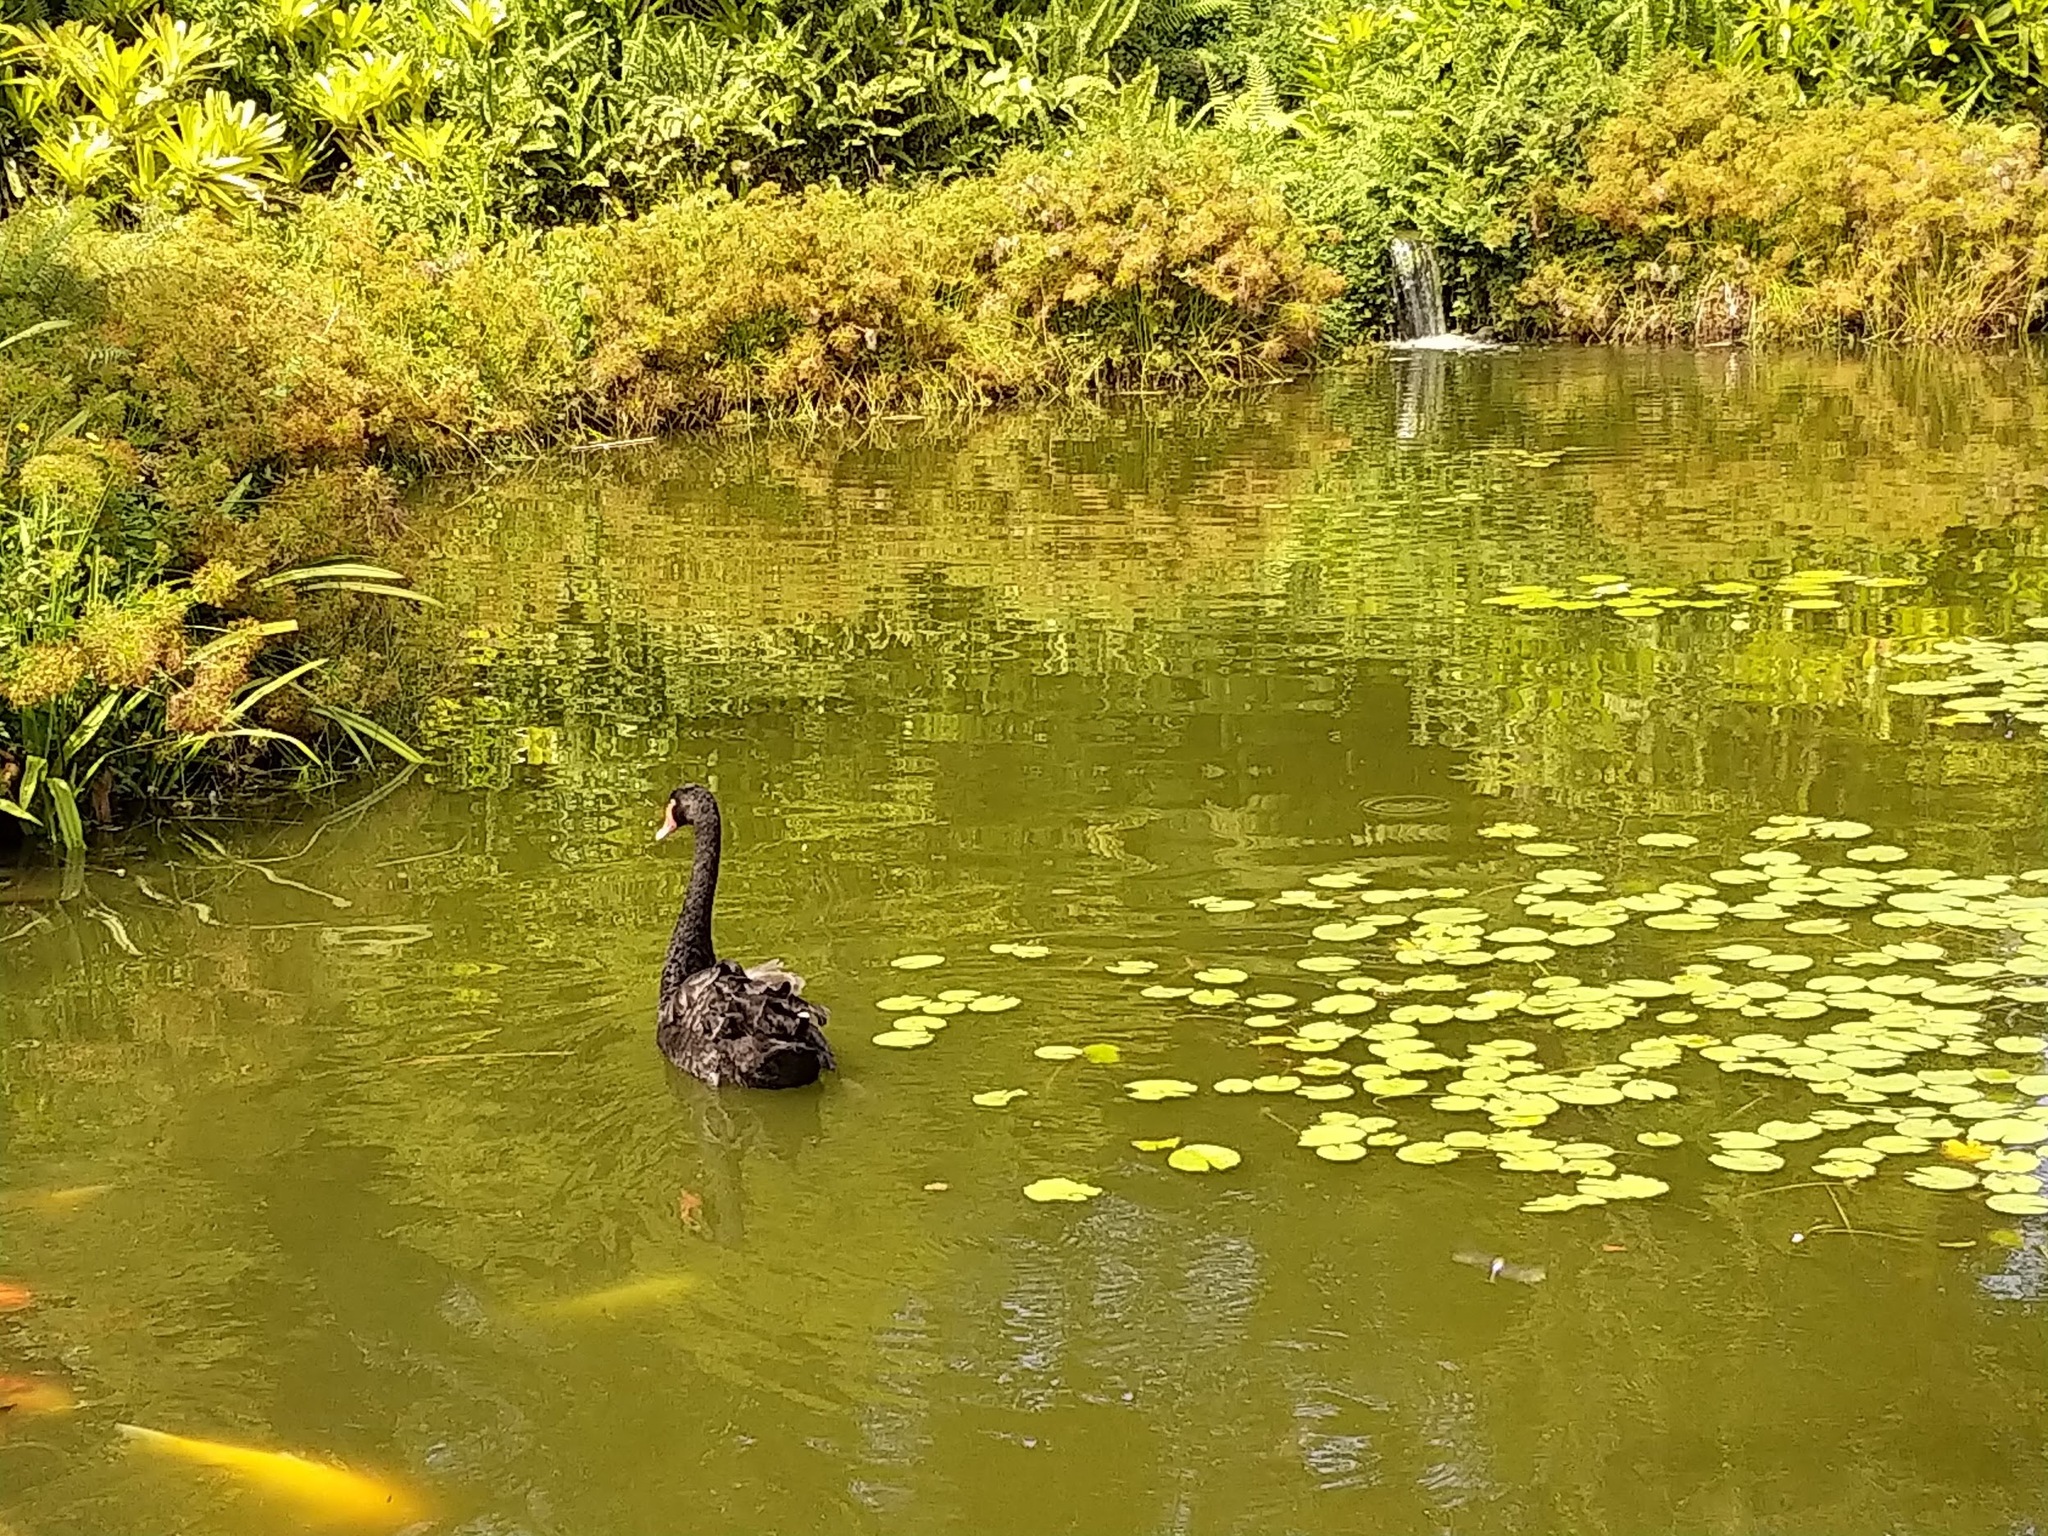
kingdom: Animalia
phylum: Chordata
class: Aves
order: Anseriformes
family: Anatidae
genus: Cygnus
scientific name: Cygnus atratus
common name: Black swan
